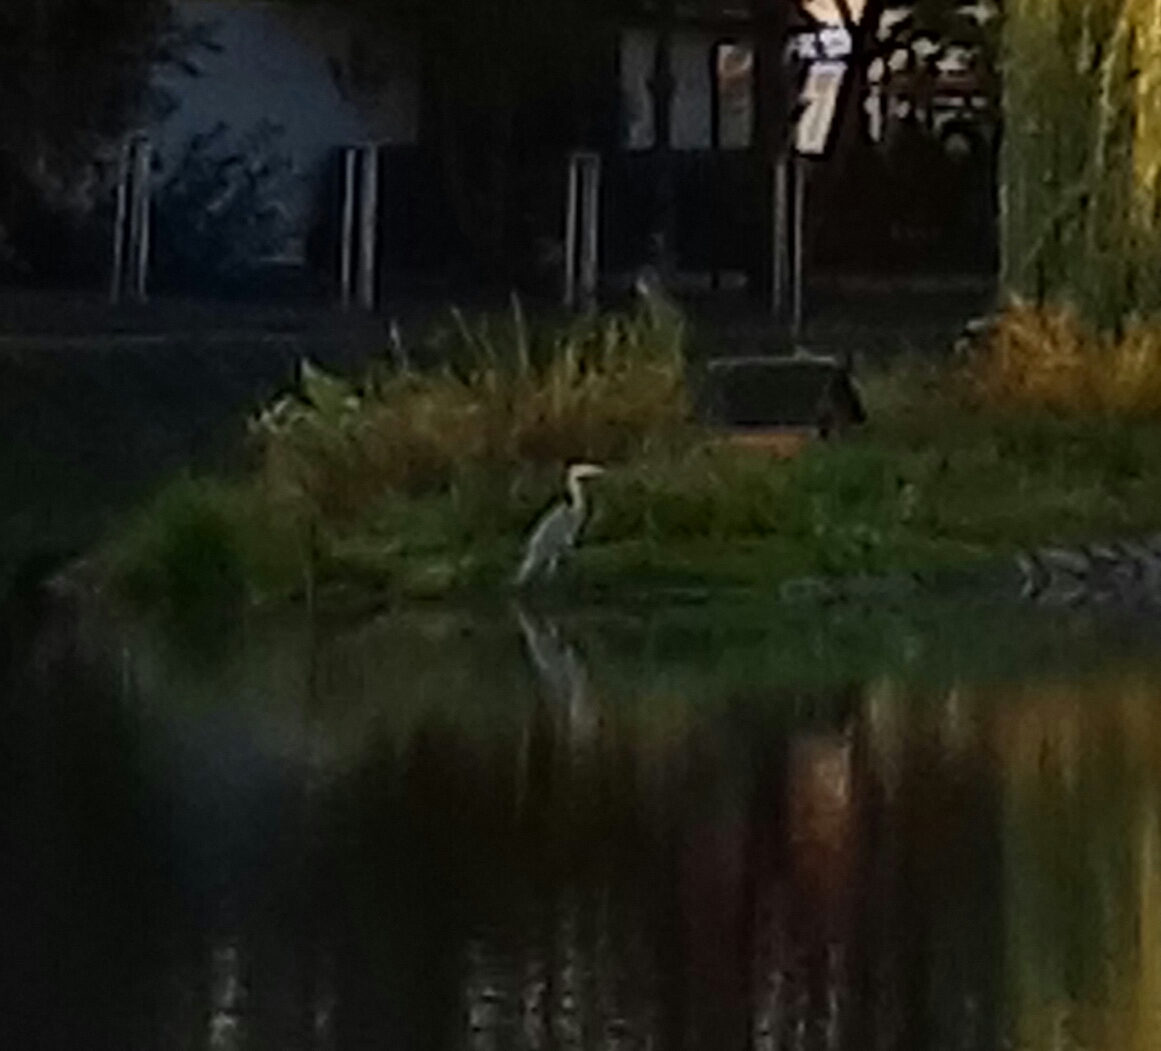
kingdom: Animalia
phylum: Chordata
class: Aves
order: Pelecaniformes
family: Ardeidae
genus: Ardea
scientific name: Ardea cinerea
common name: Grey heron
